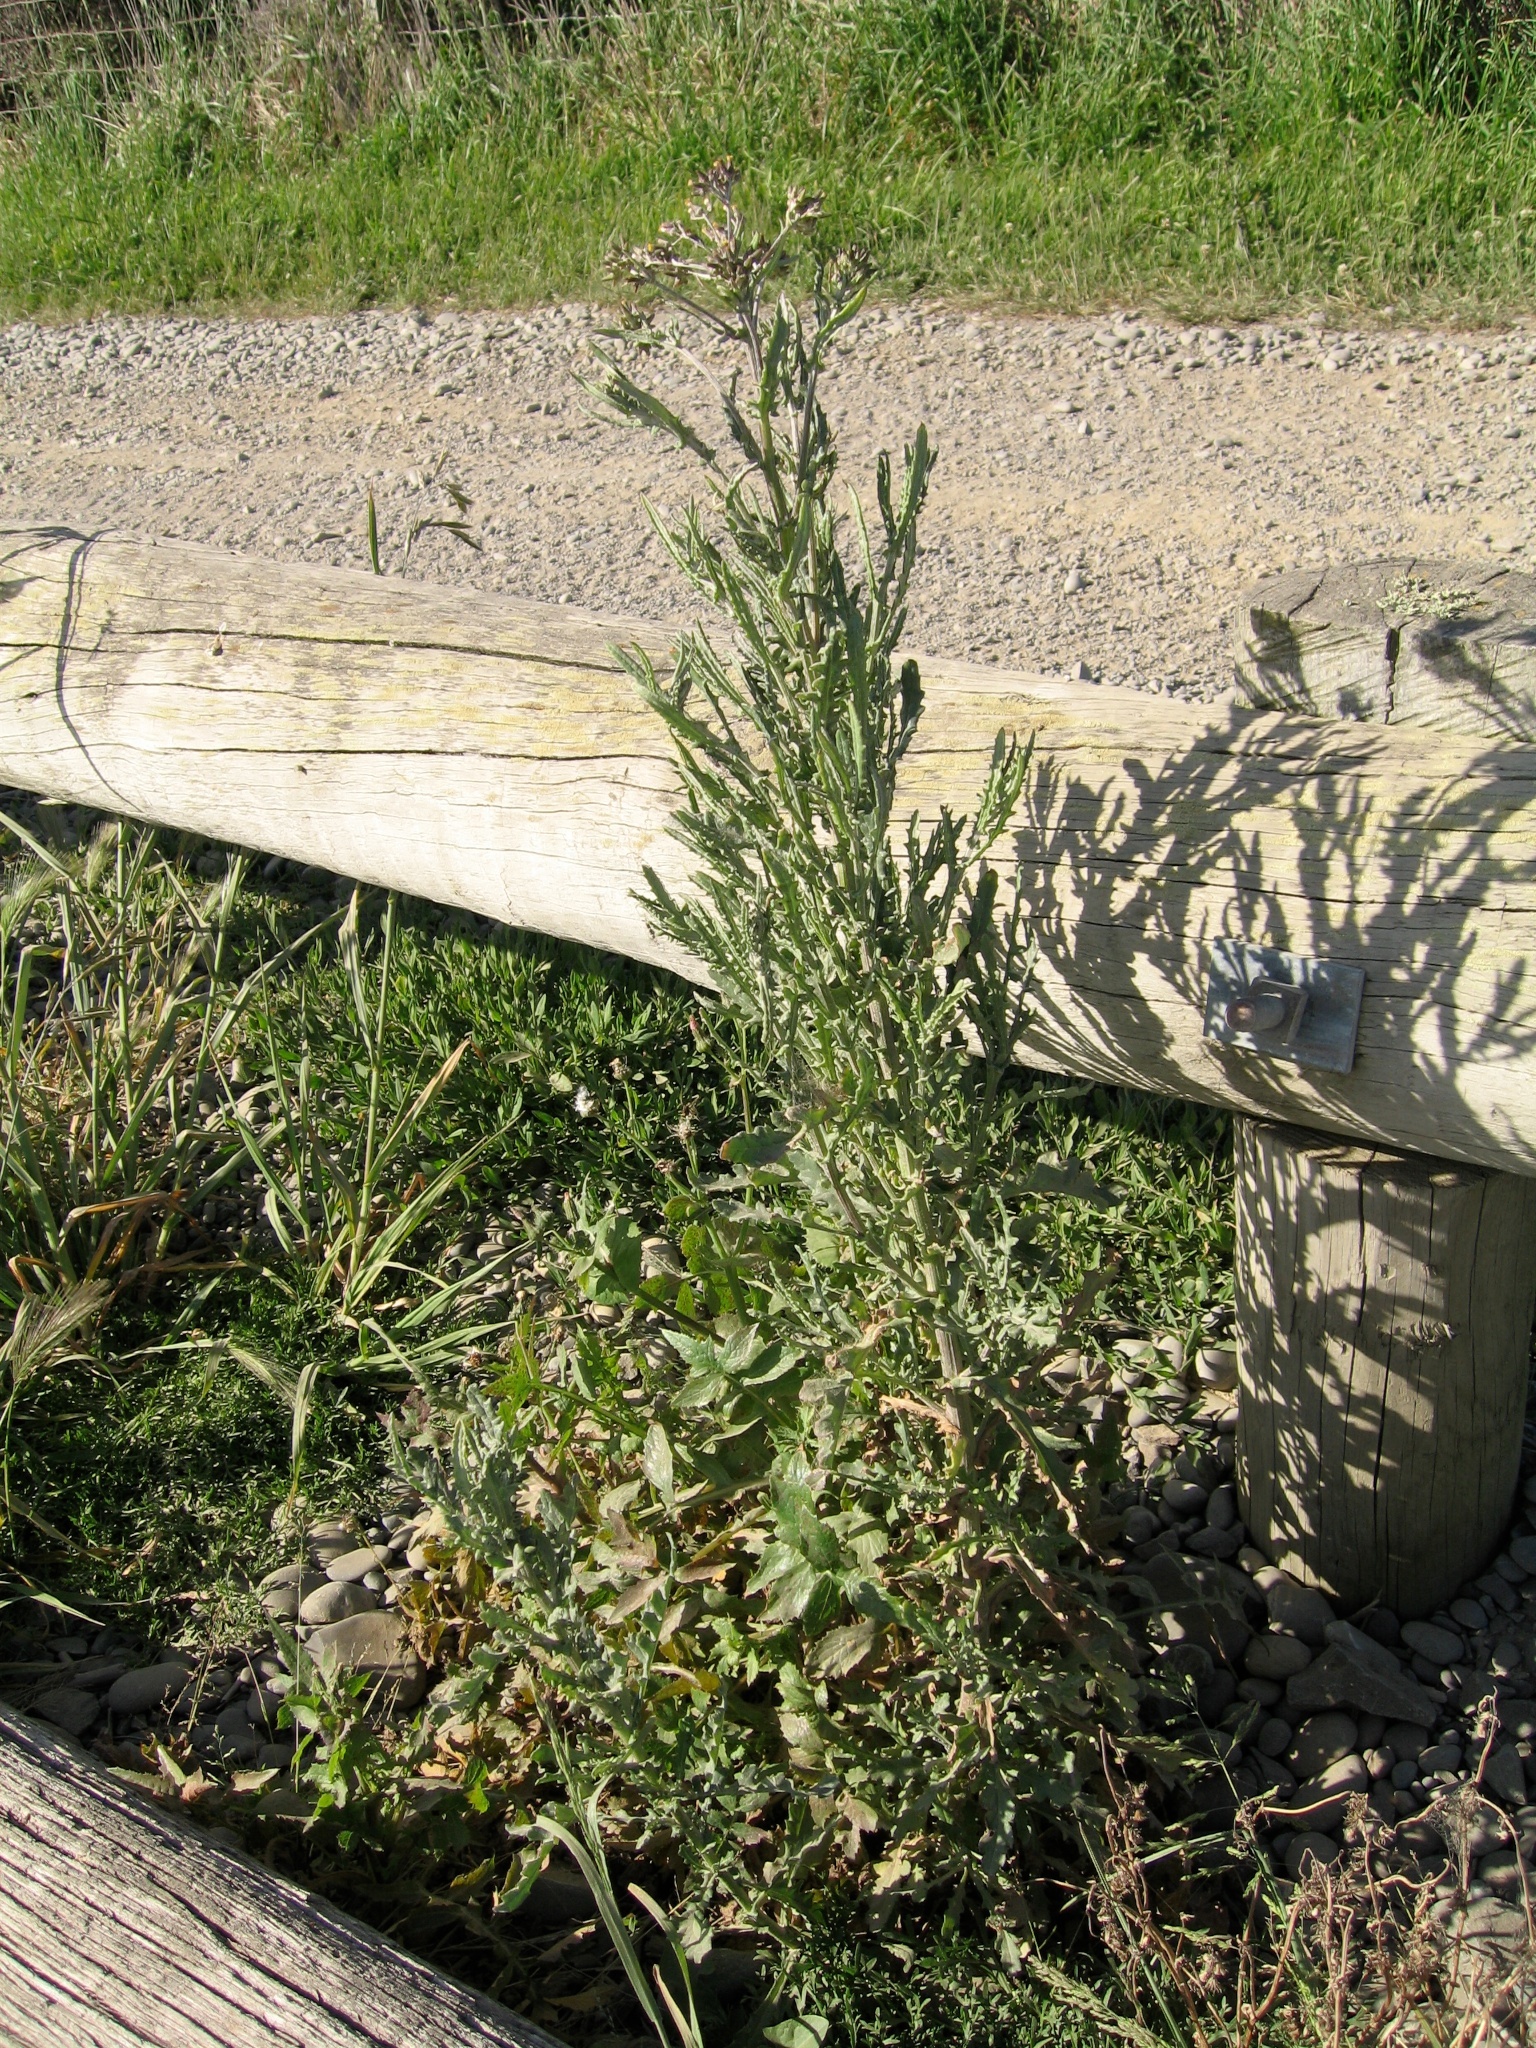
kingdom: Plantae
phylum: Tracheophyta
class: Magnoliopsida
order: Asterales
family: Asteraceae
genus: Senecio
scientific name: Senecio glomeratus
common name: Cutleaf burnweed
